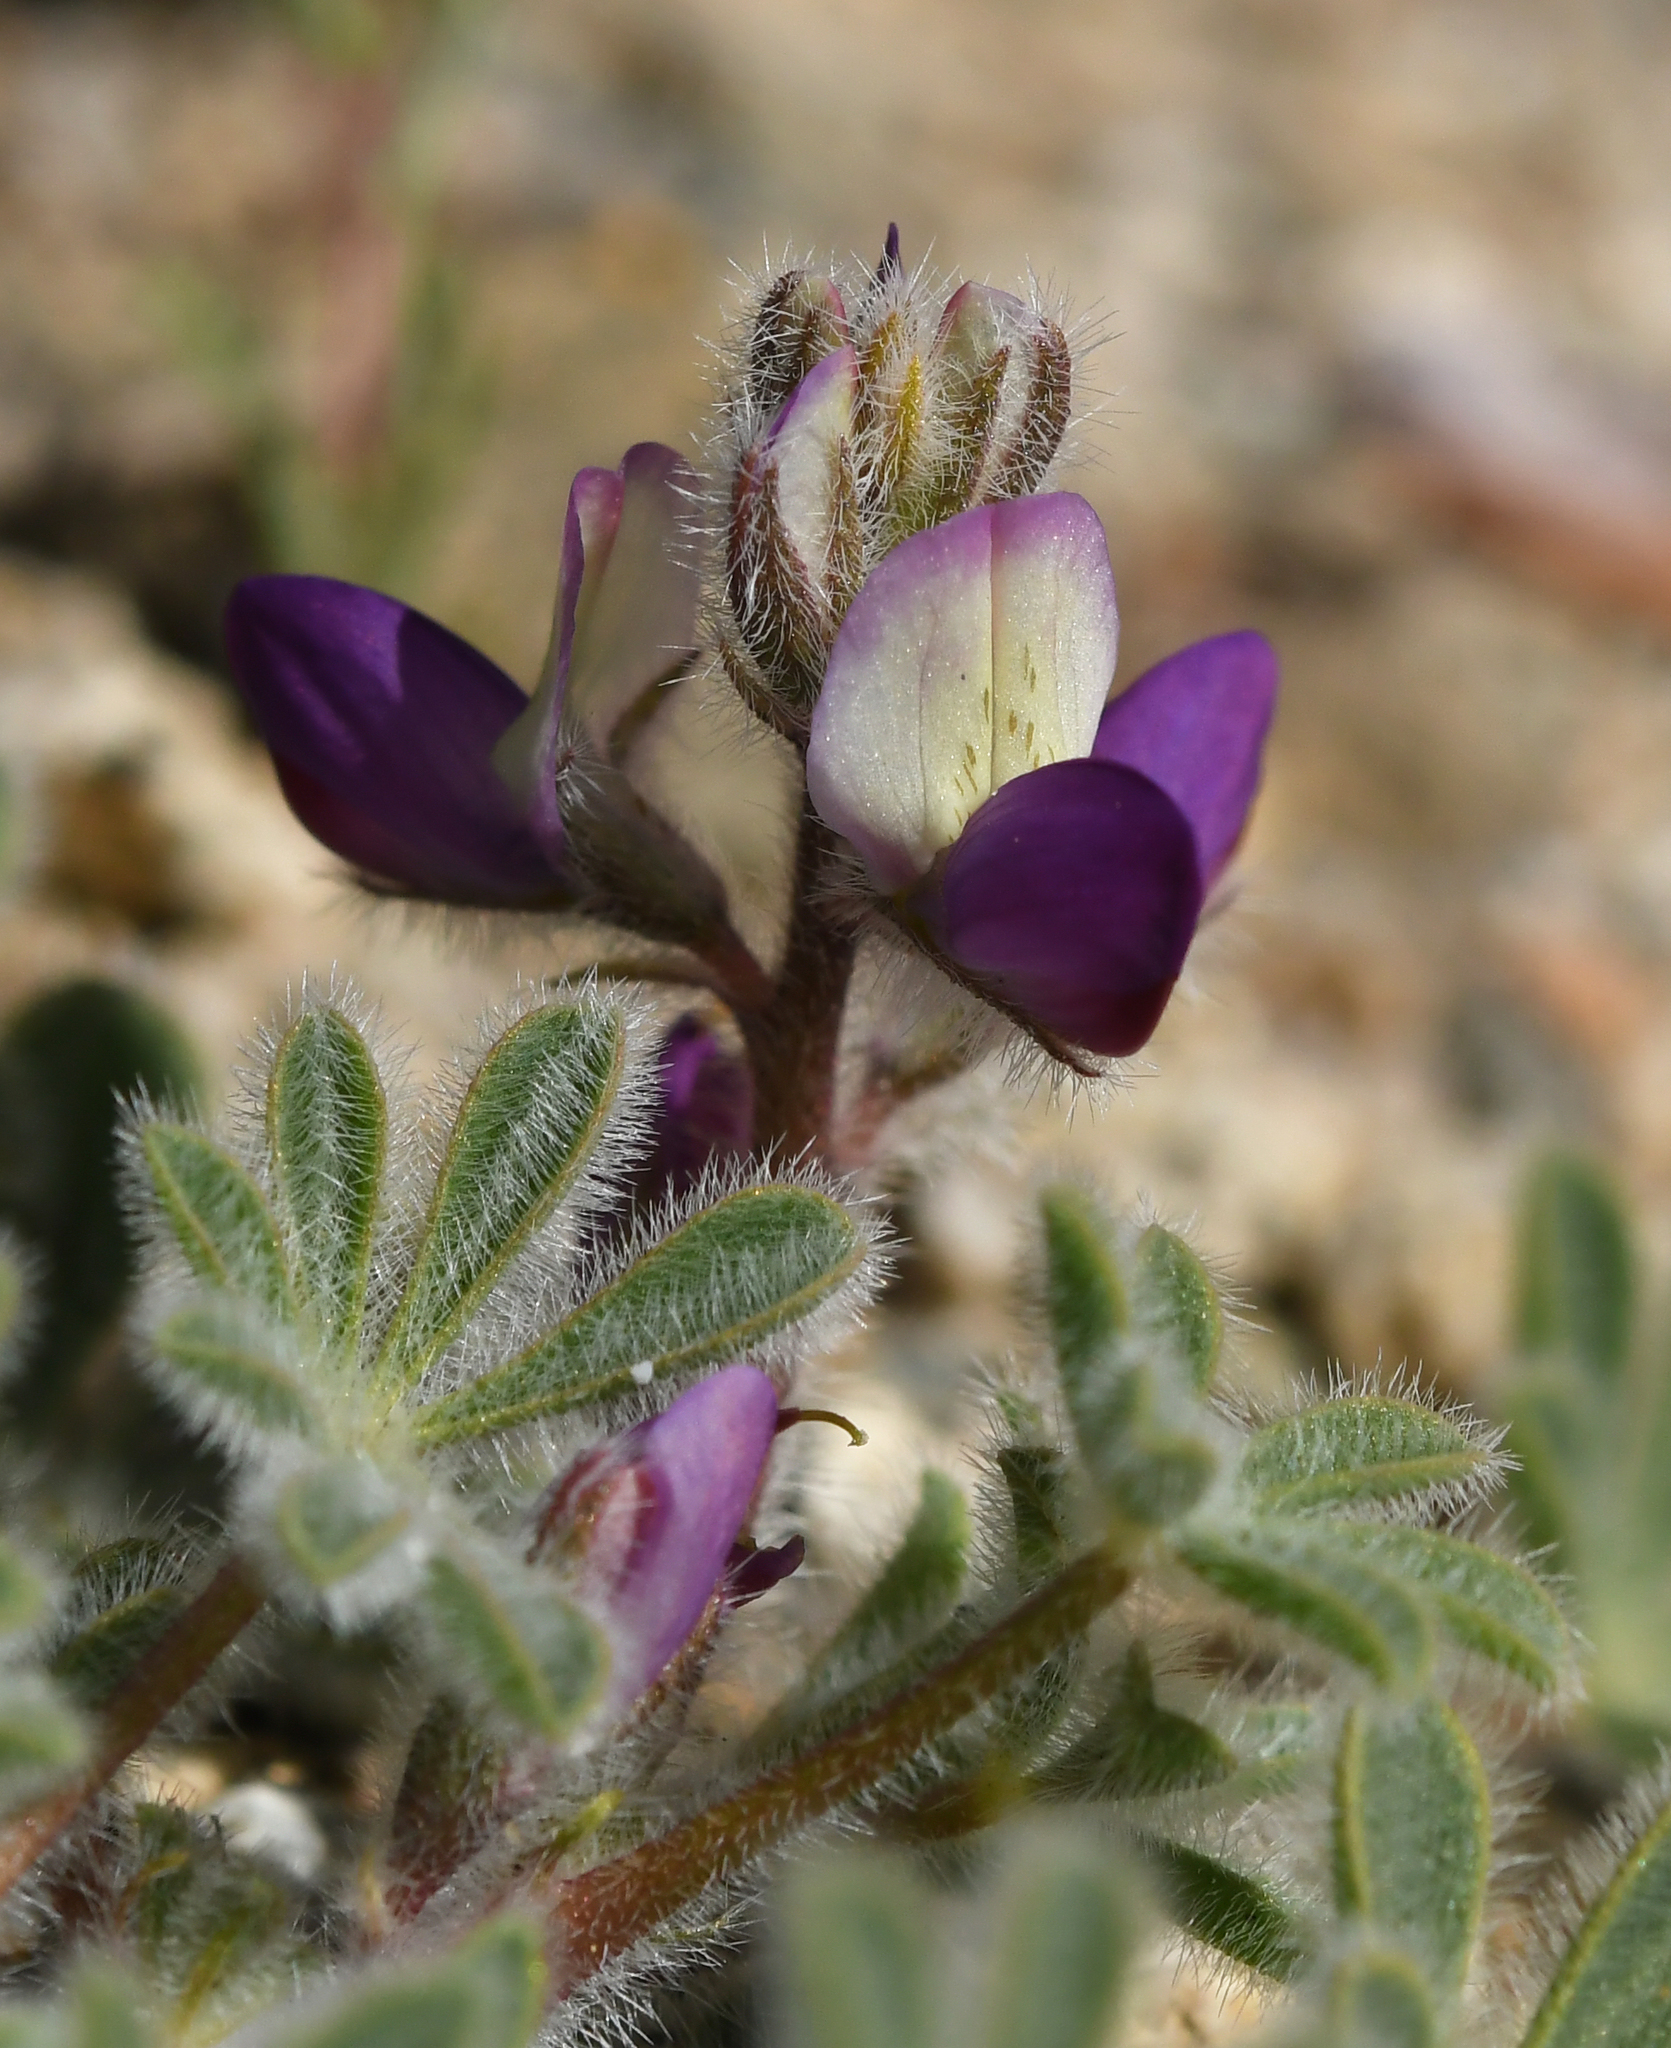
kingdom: Plantae
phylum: Tracheophyta
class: Magnoliopsida
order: Fabales
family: Fabaceae
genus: Lupinus
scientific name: Lupinus concinnus
